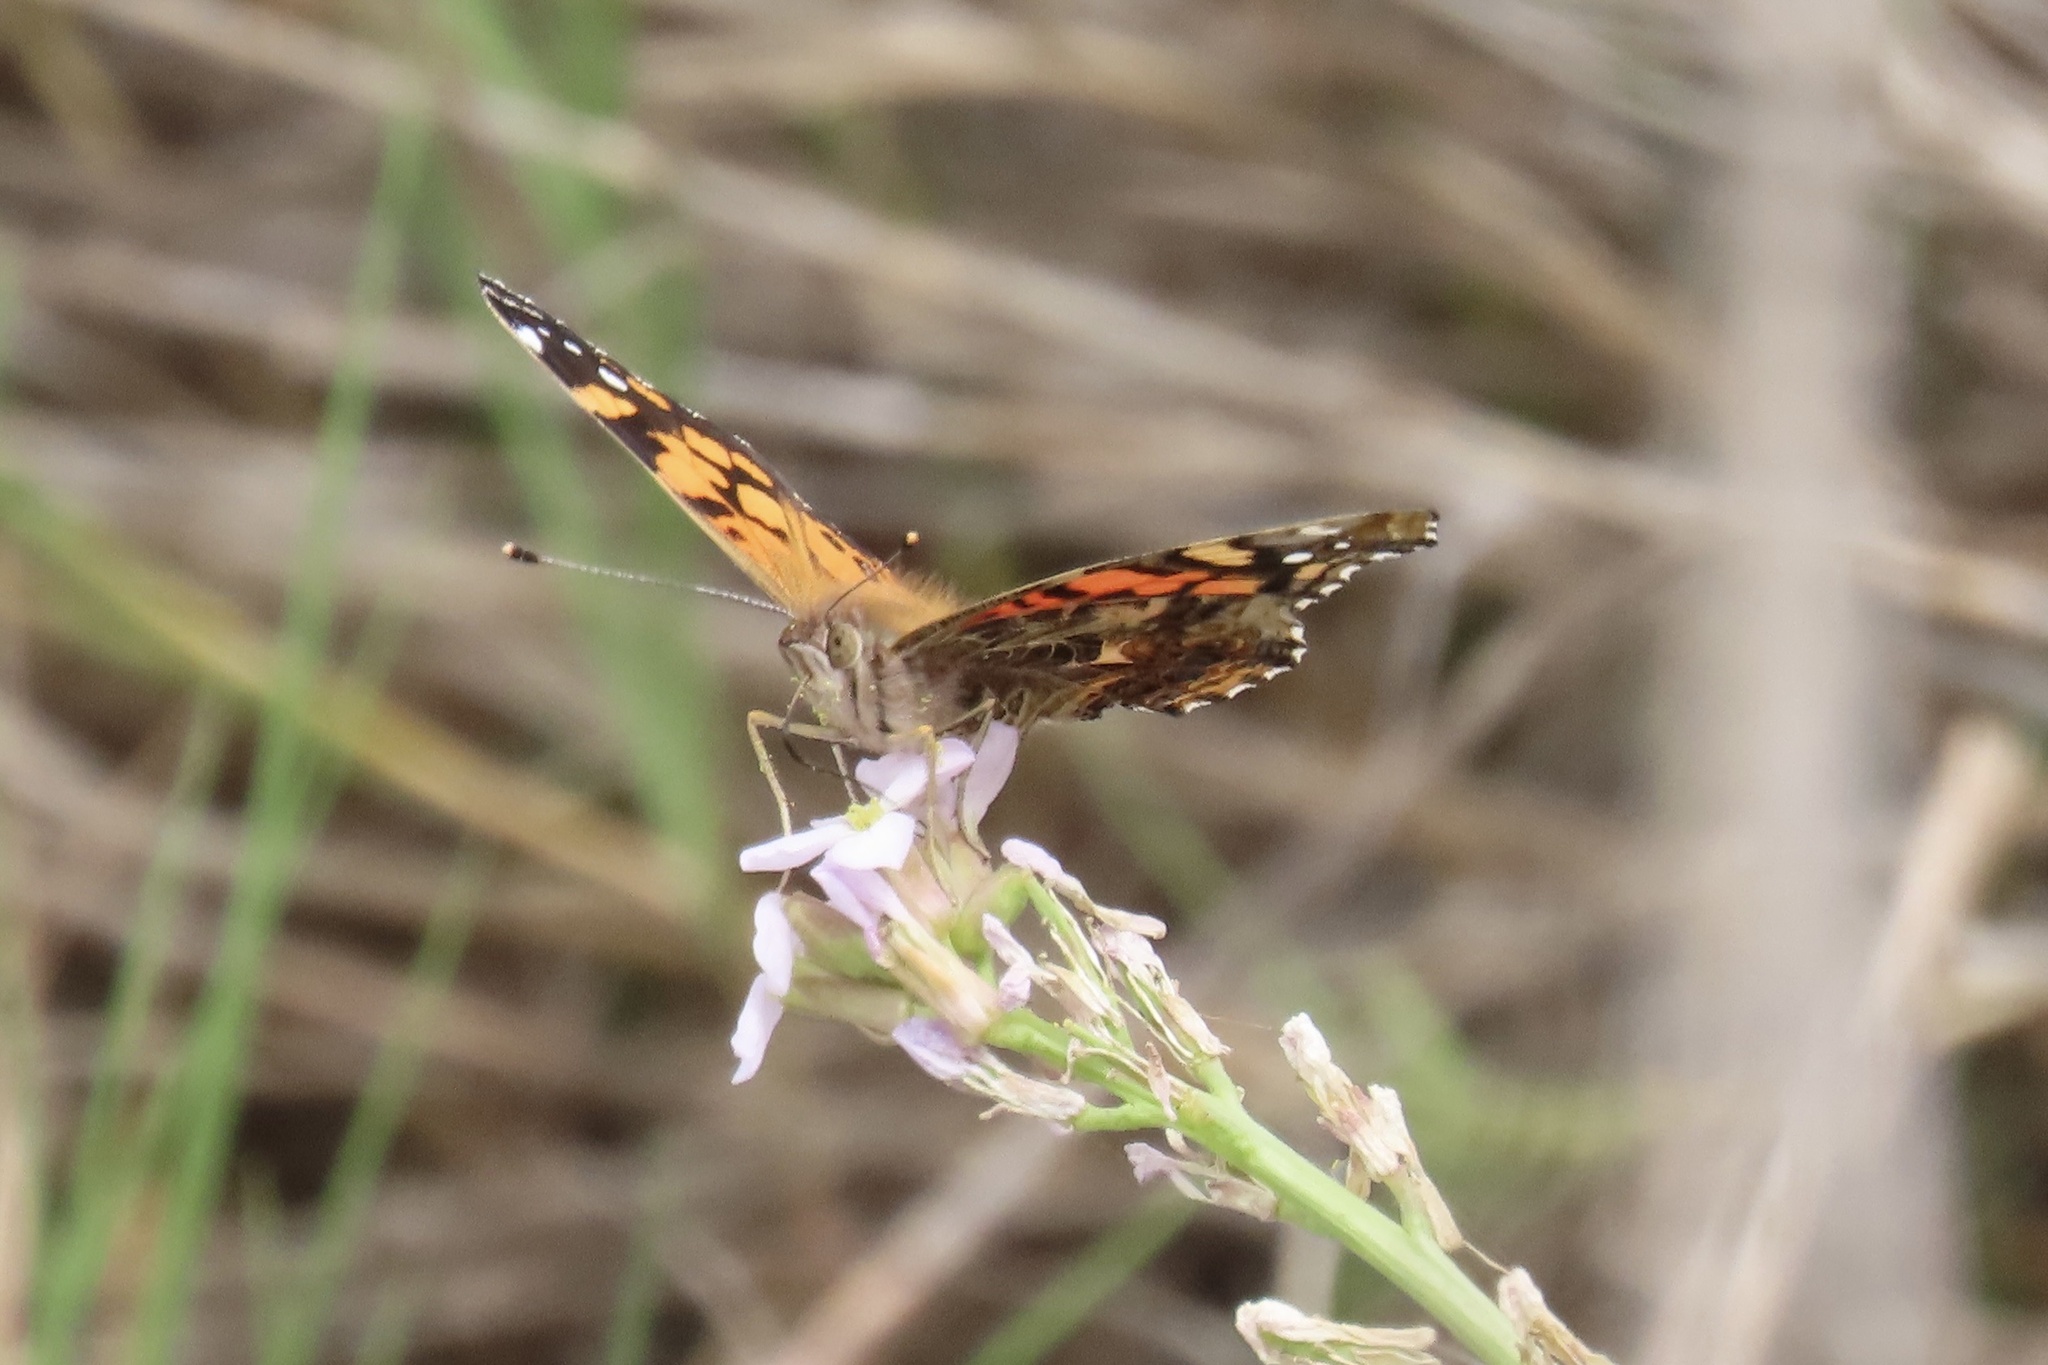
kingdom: Animalia
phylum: Arthropoda
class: Insecta
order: Lepidoptera
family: Nymphalidae
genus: Vanessa
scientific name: Vanessa annabella
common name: West coast lady
